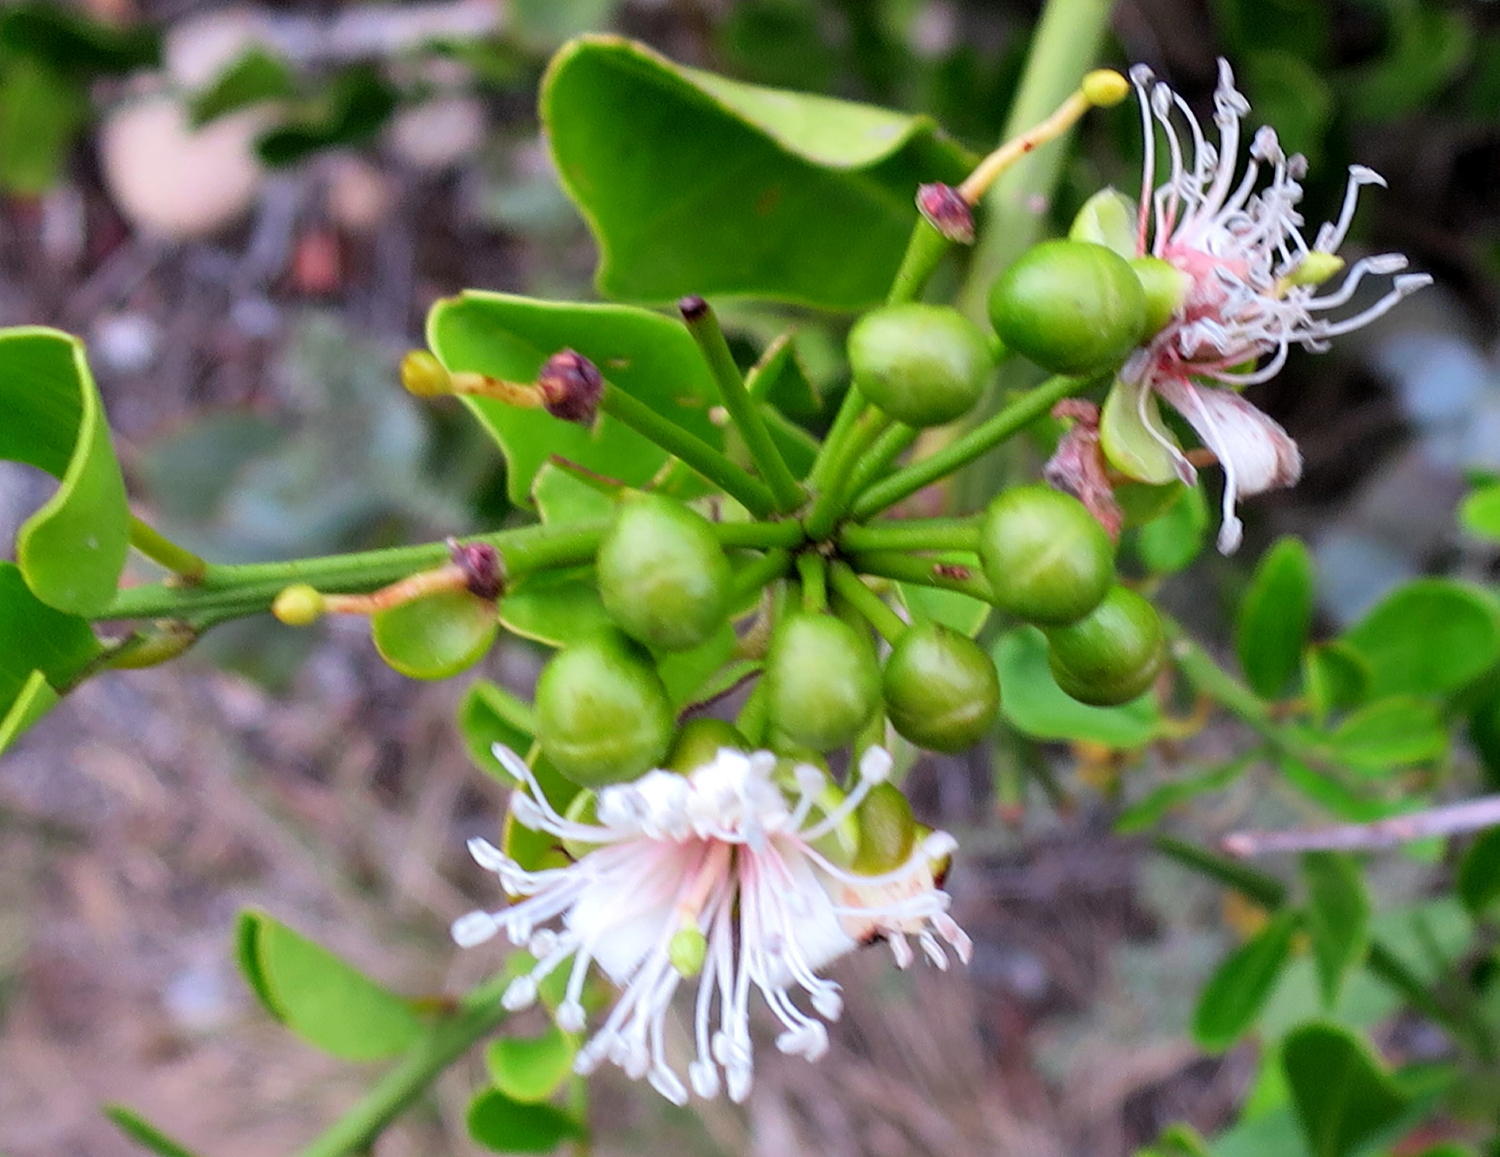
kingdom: Plantae
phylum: Tracheophyta
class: Magnoliopsida
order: Brassicales
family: Capparaceae
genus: Capparis
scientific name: Capparis sepiaria
